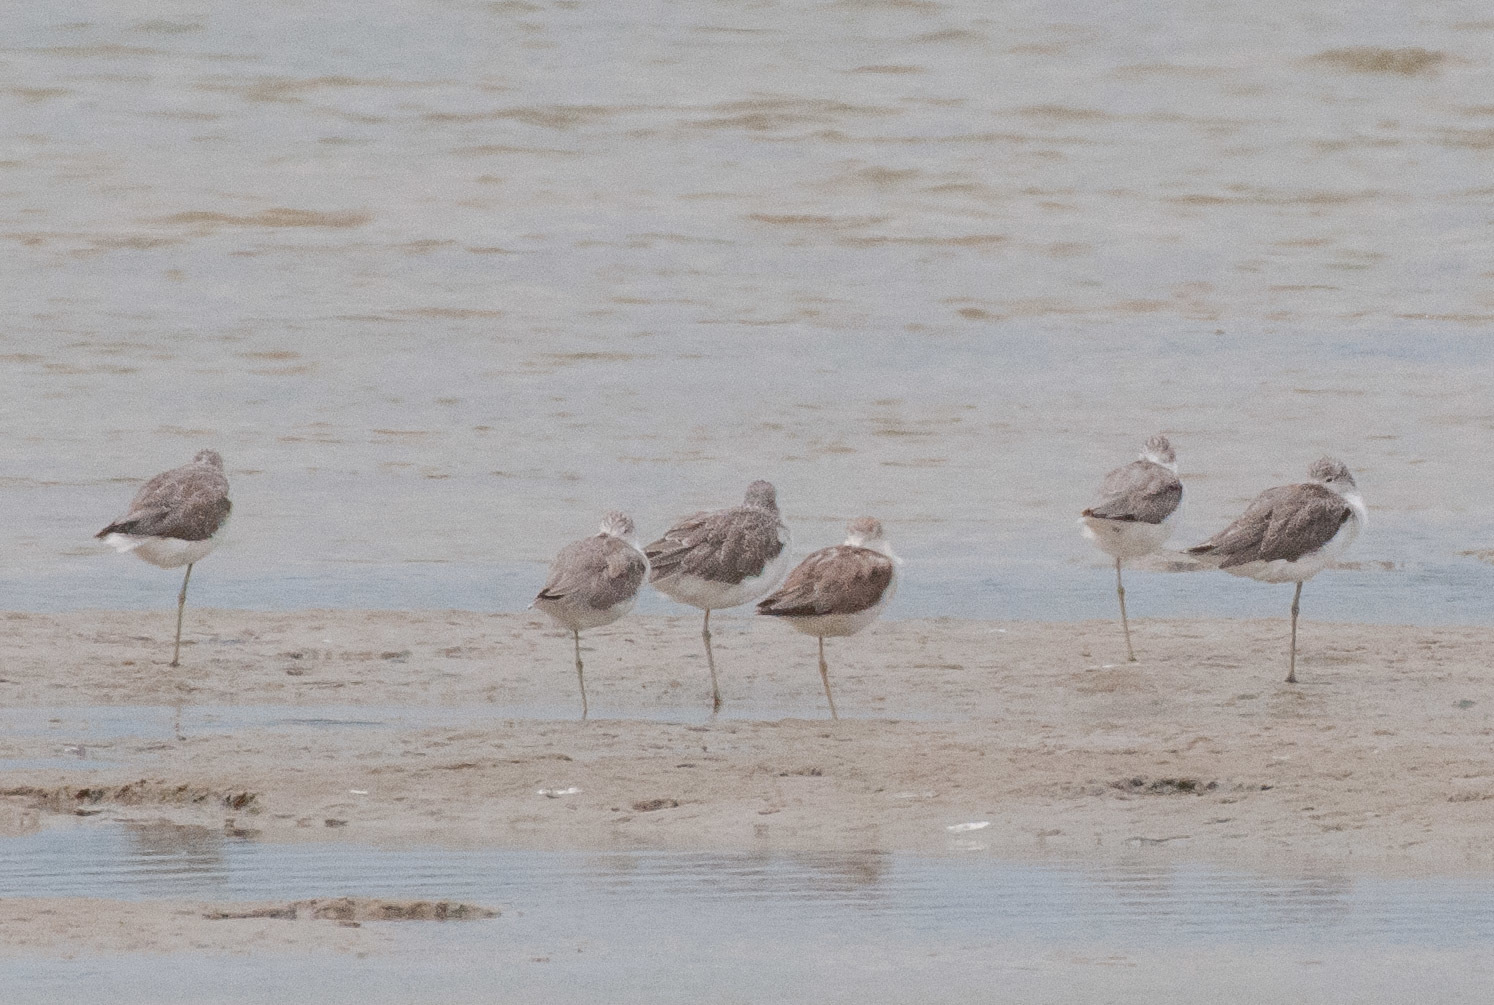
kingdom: Animalia
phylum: Chordata
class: Aves
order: Charadriiformes
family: Scolopacidae
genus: Tringa
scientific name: Tringa nebularia
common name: Common greenshank
